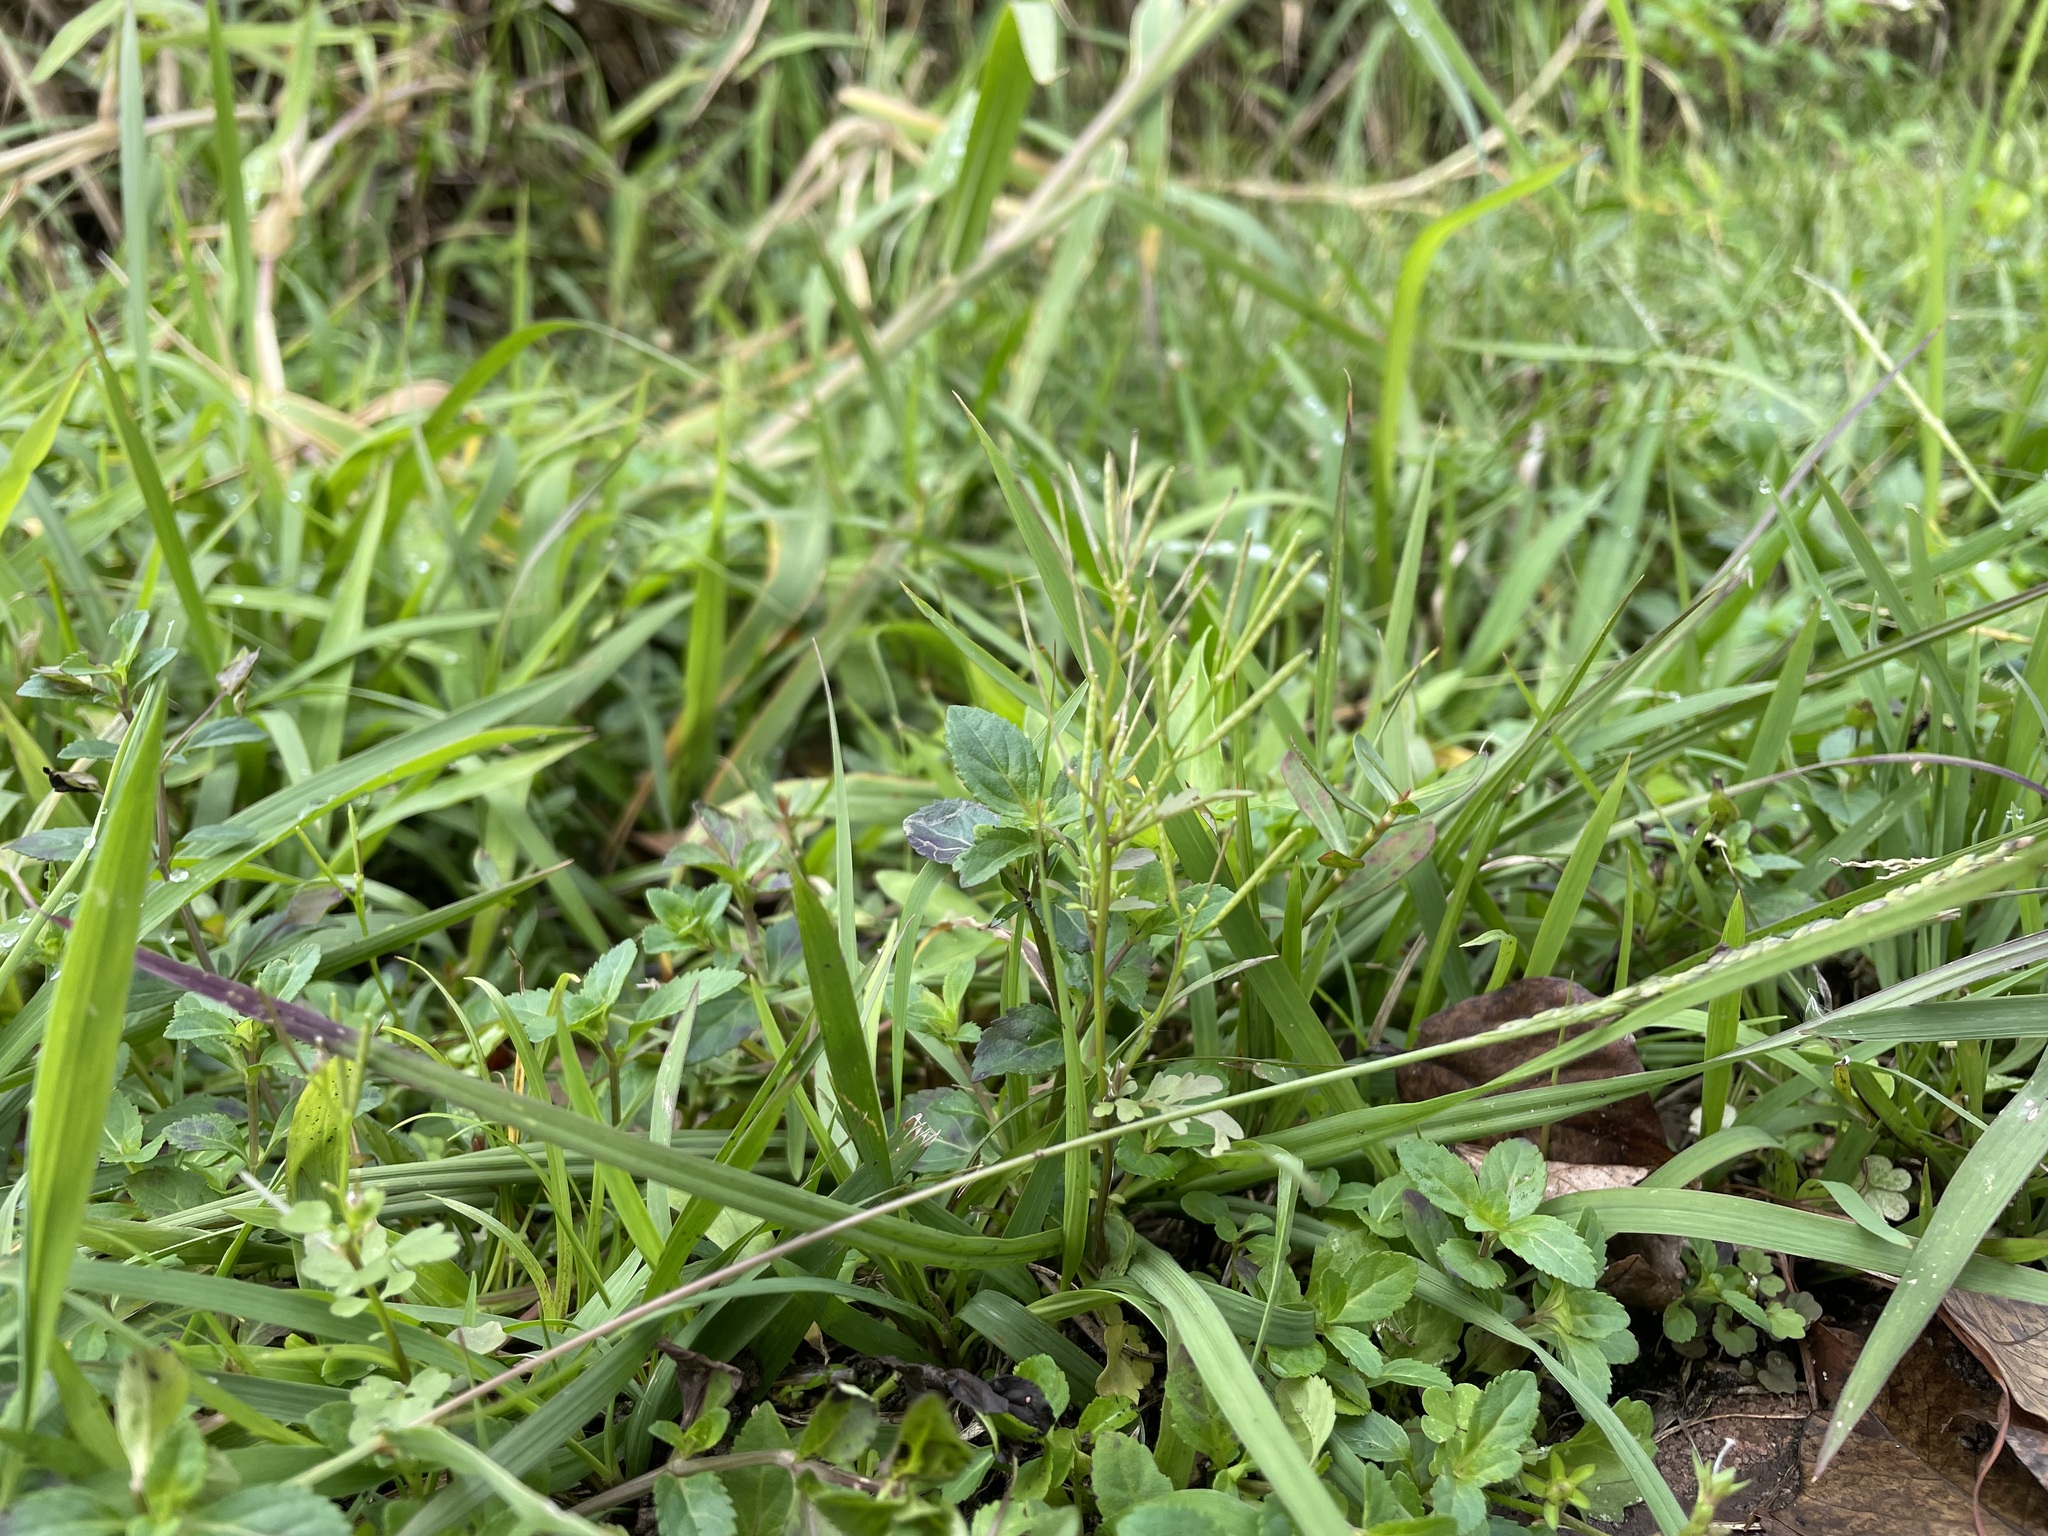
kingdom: Plantae
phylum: Tracheophyta
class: Magnoliopsida
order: Brassicales
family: Brassicaceae
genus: Cardamine
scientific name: Cardamine flexuosa
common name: Woodland bittercress
